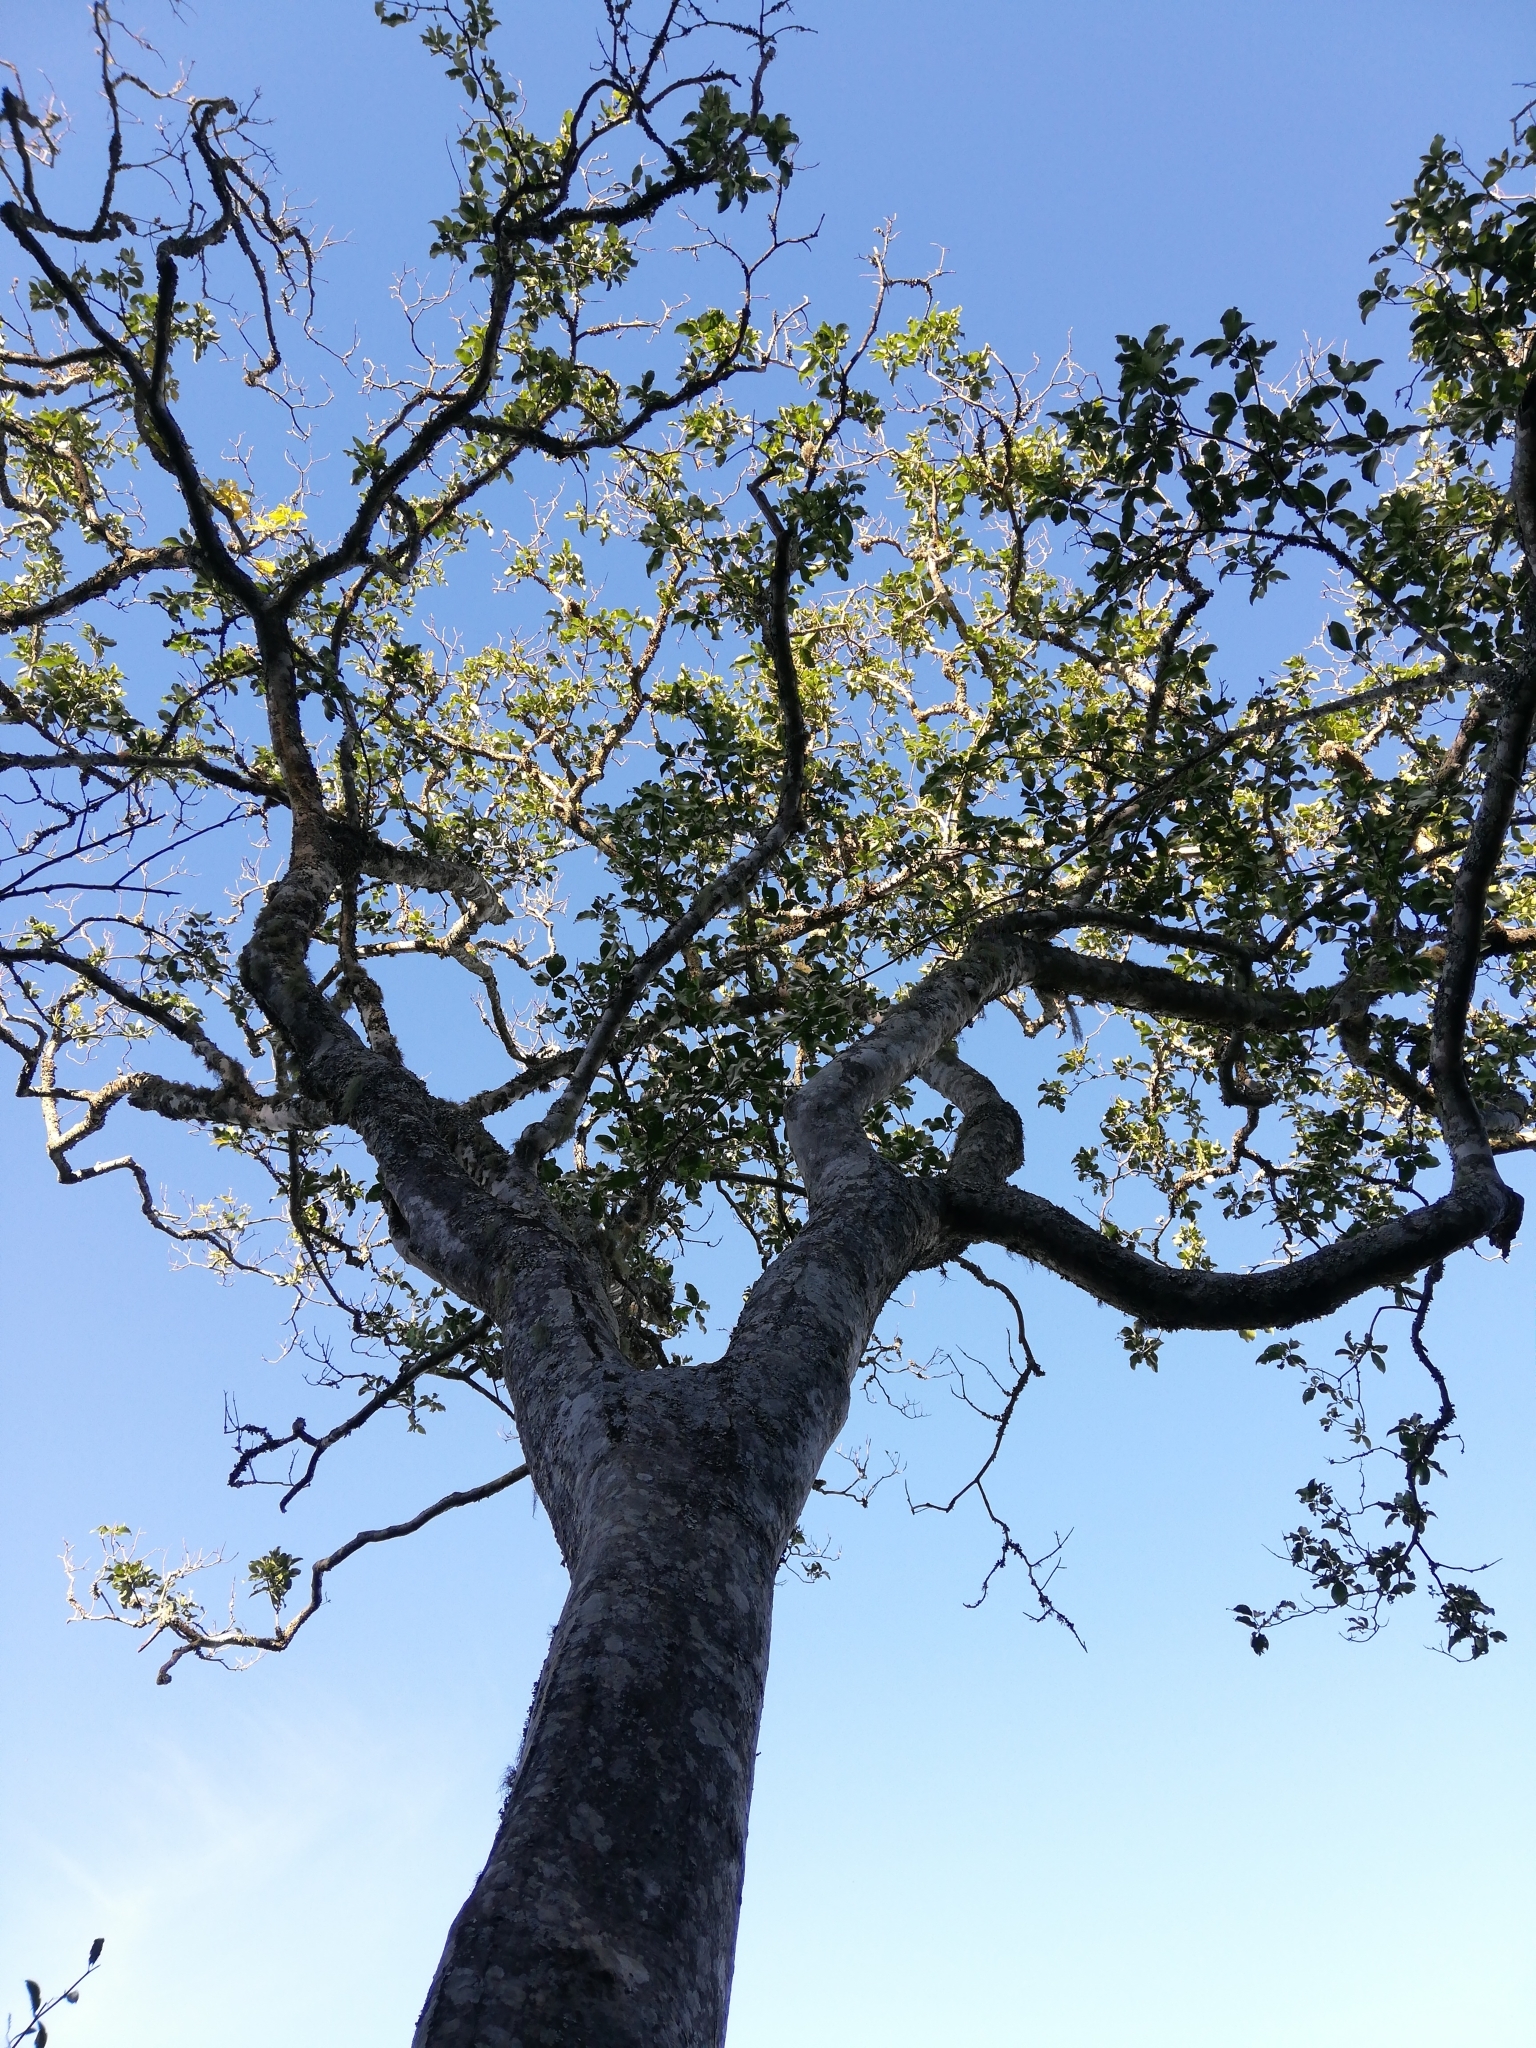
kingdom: Plantae
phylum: Tracheophyta
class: Magnoliopsida
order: Sapindales
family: Rutaceae
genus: Calodendrum
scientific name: Calodendrum capense
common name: Cape chestnut
